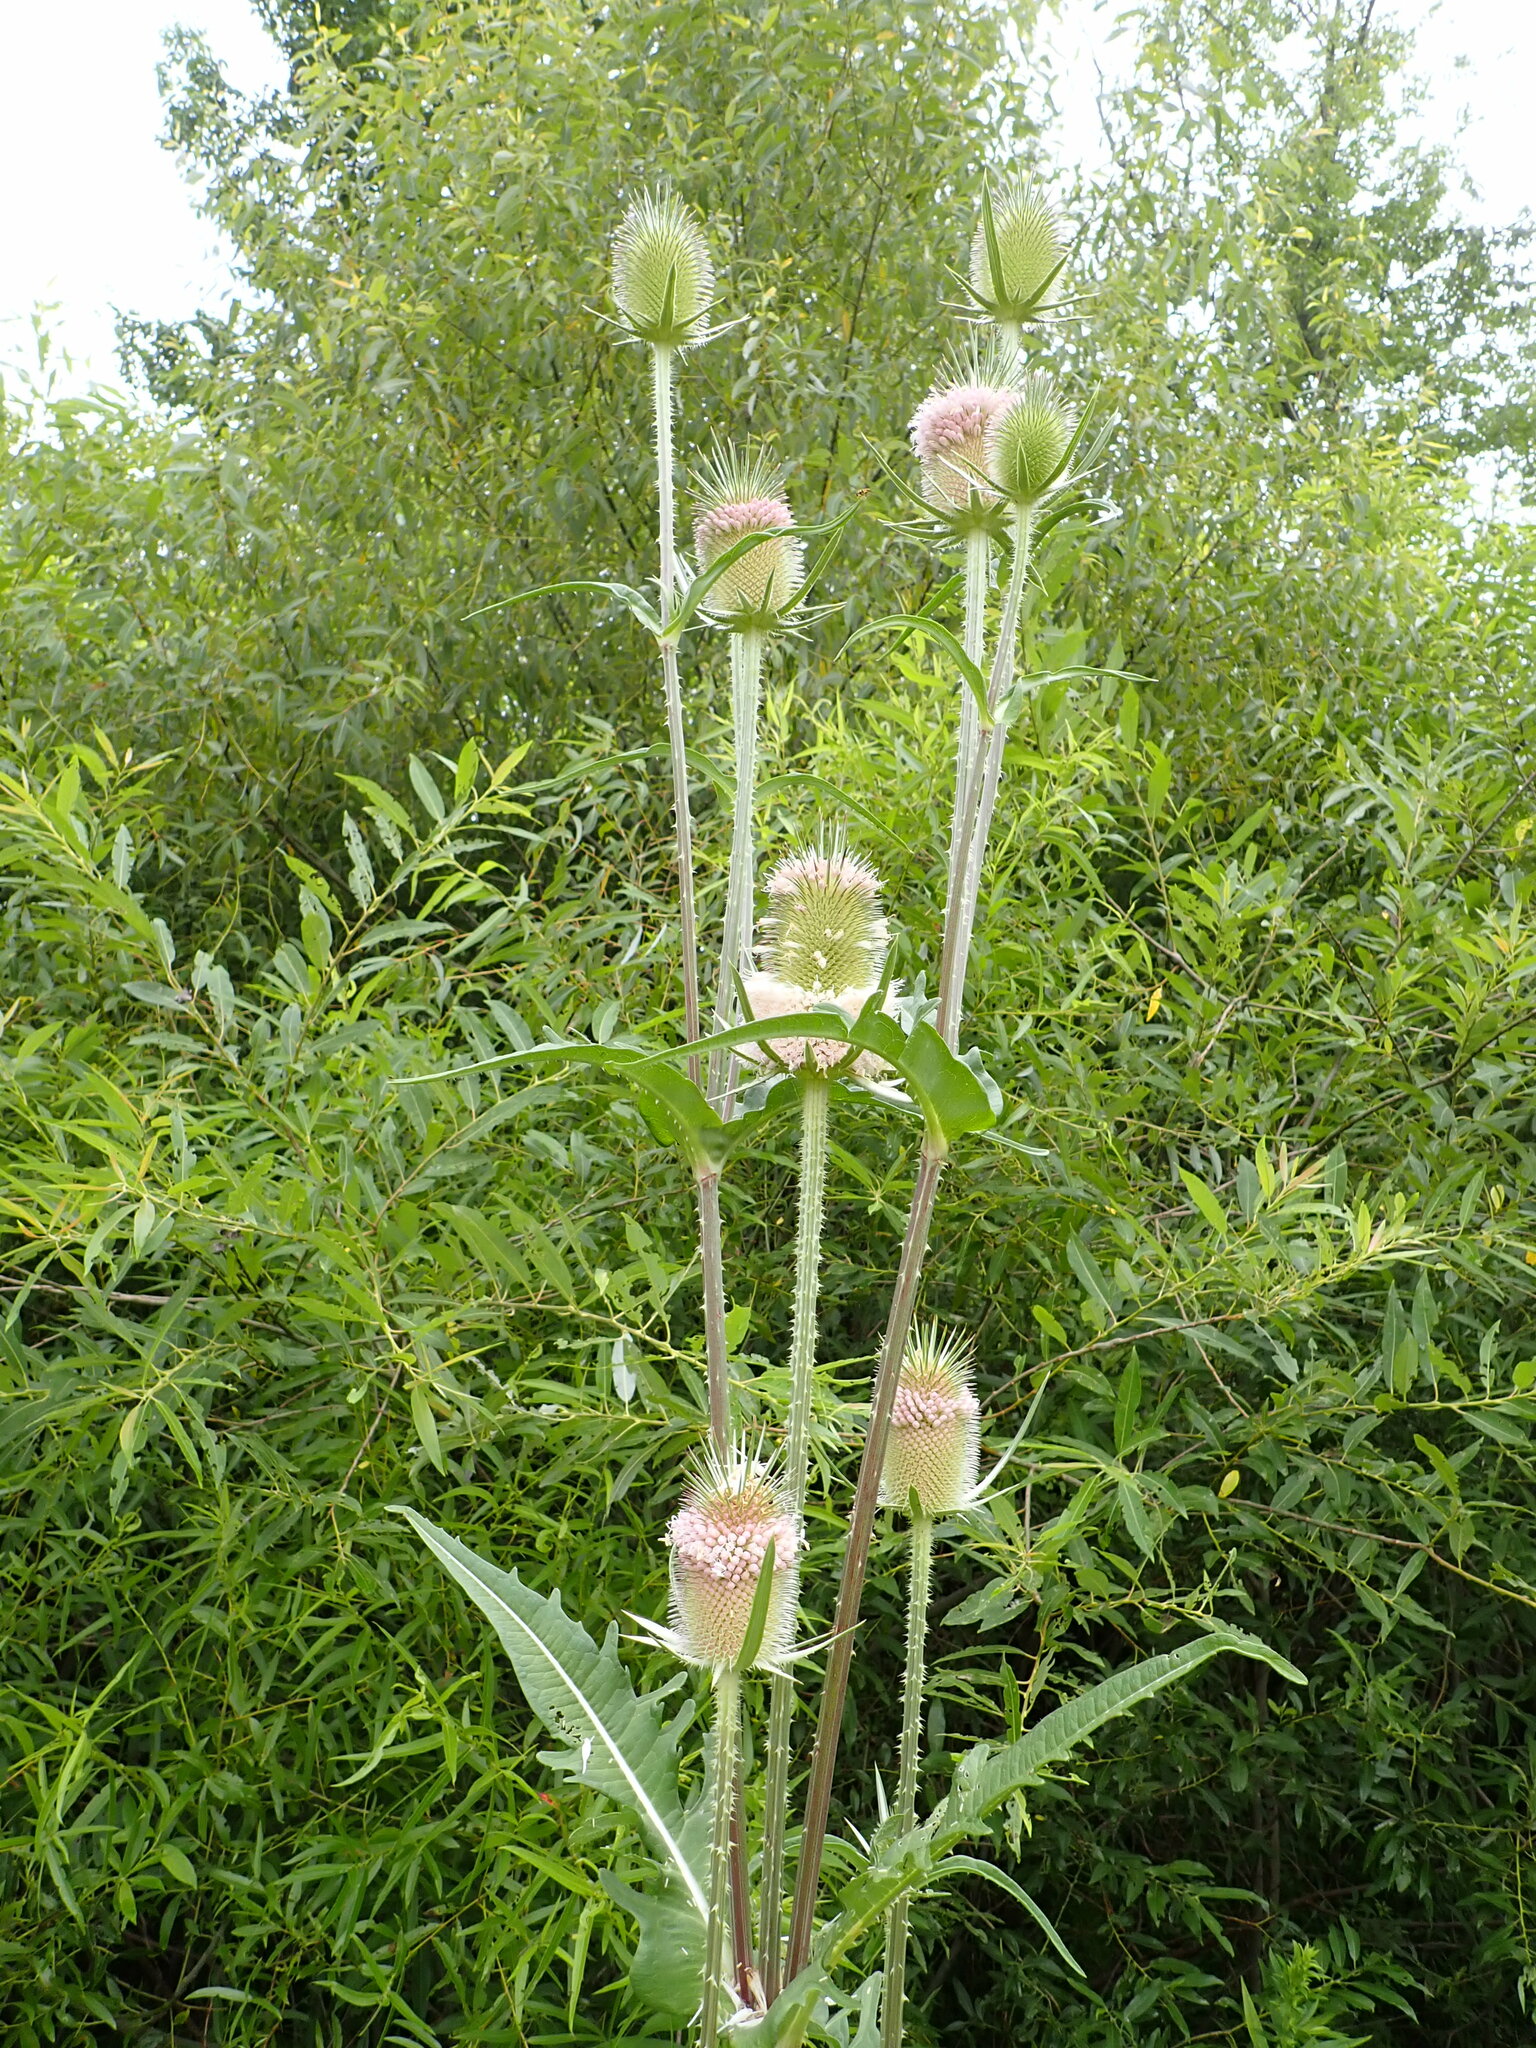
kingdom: Plantae
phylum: Tracheophyta
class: Magnoliopsida
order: Dipsacales
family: Caprifoliaceae
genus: Dipsacus
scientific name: Dipsacus laciniatus
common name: Cut-leaved teasel
